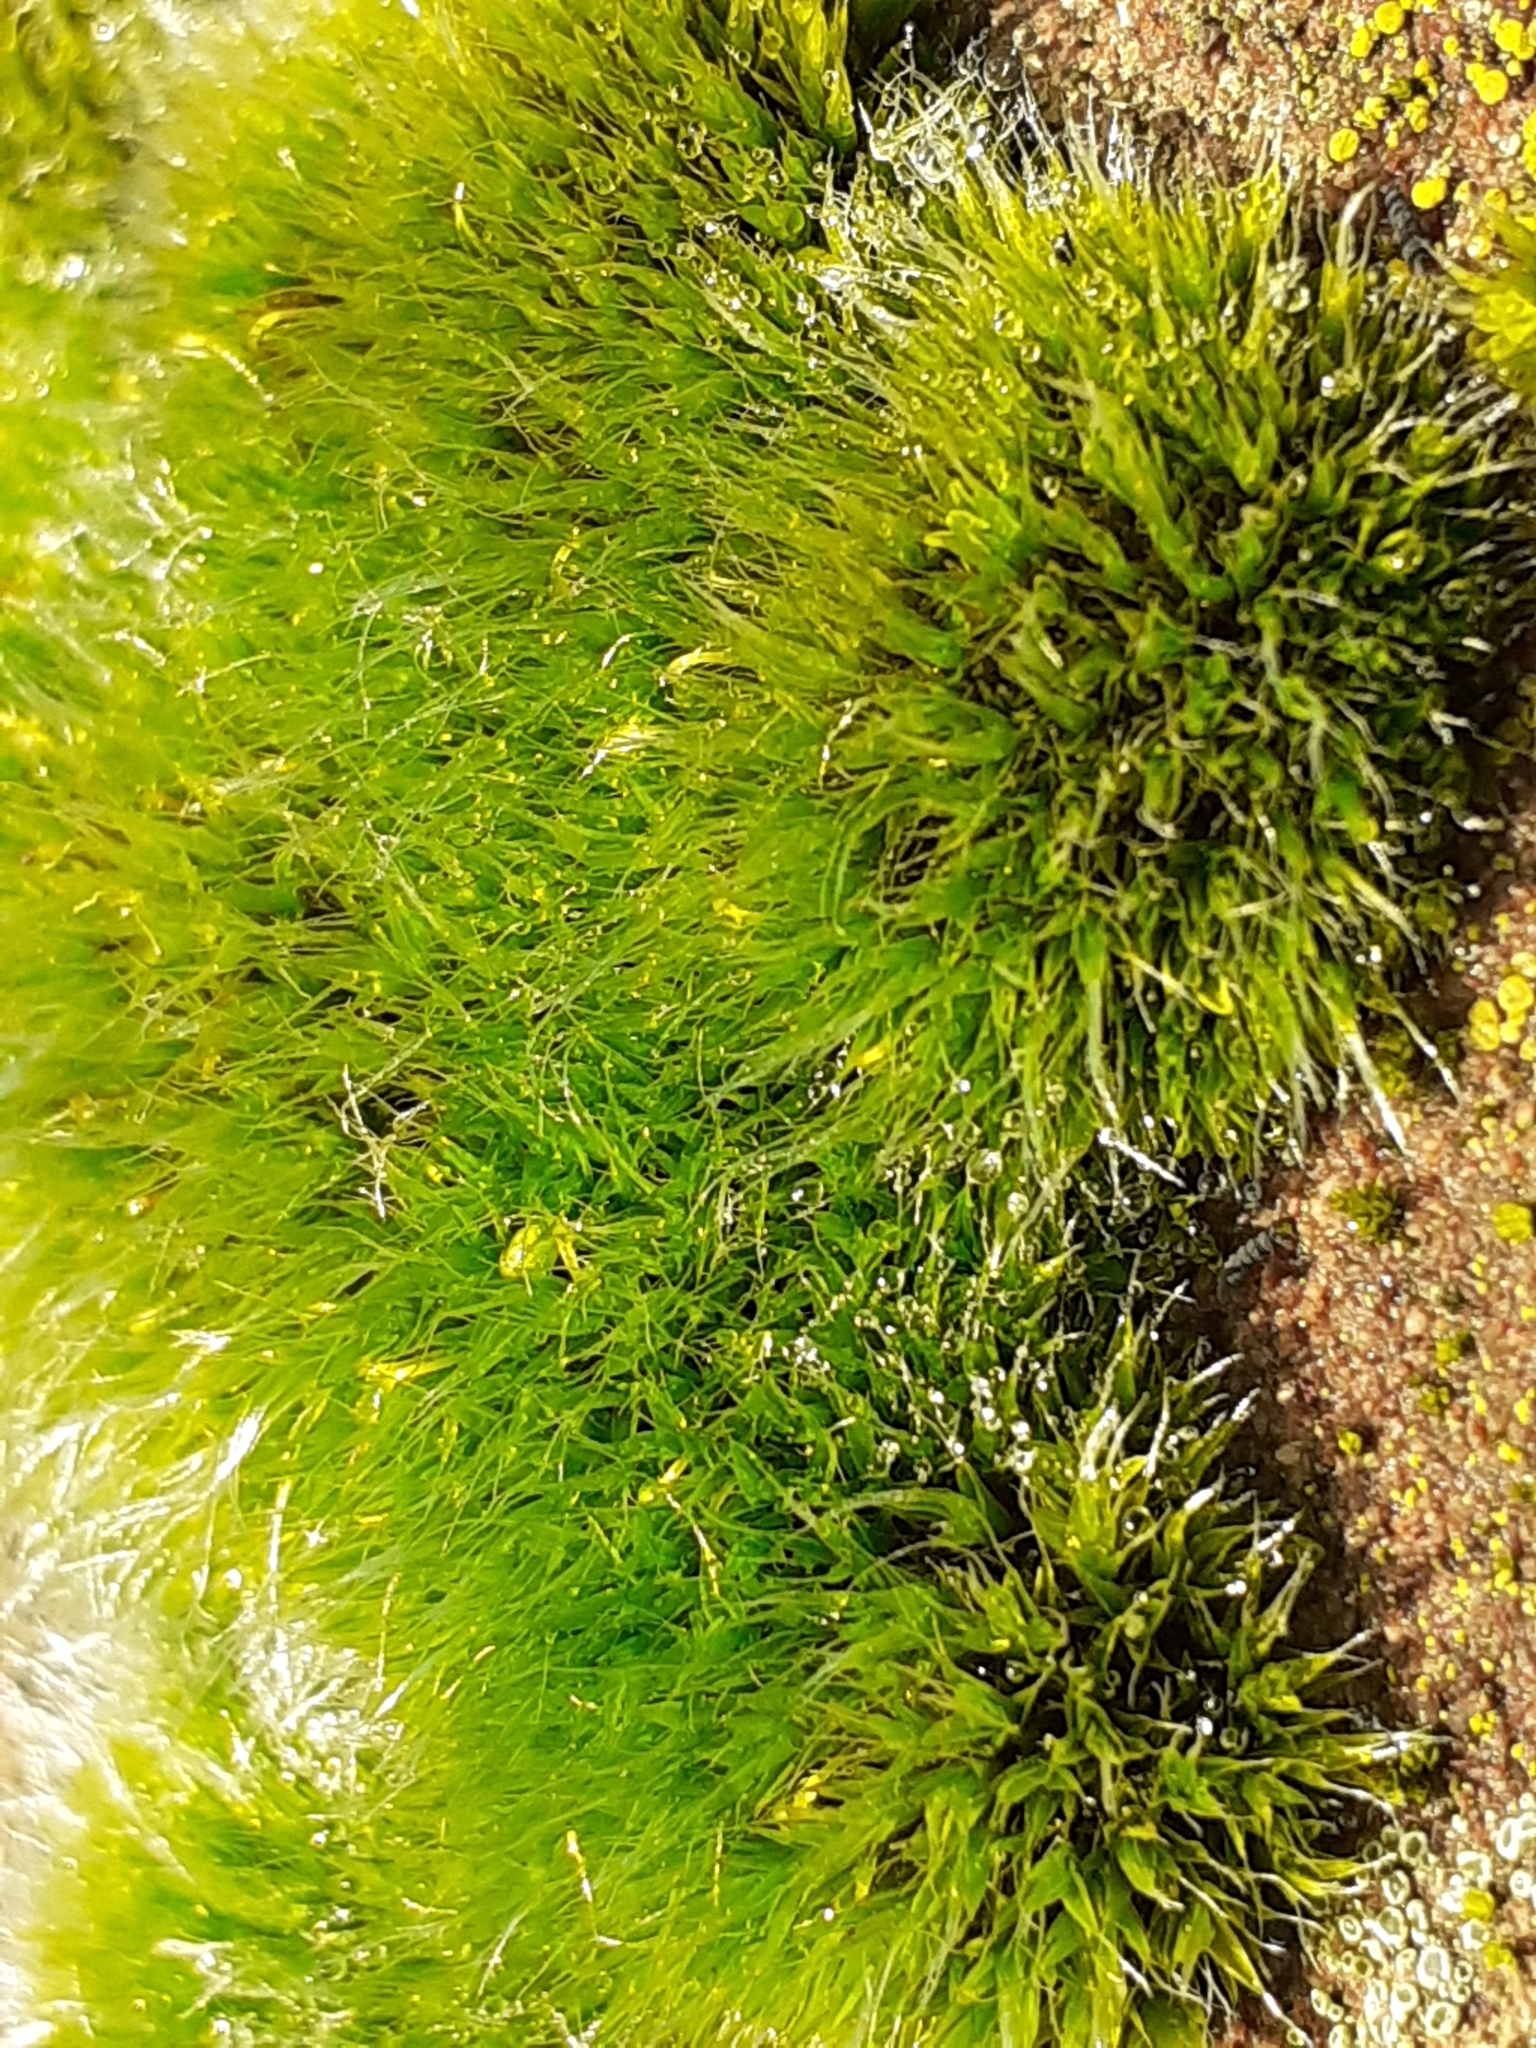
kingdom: Plantae
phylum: Bryophyta
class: Bryopsida
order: Grimmiales
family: Grimmiaceae
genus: Grimmia
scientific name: Grimmia pulvinata
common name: Grey-cushioned grimmia
